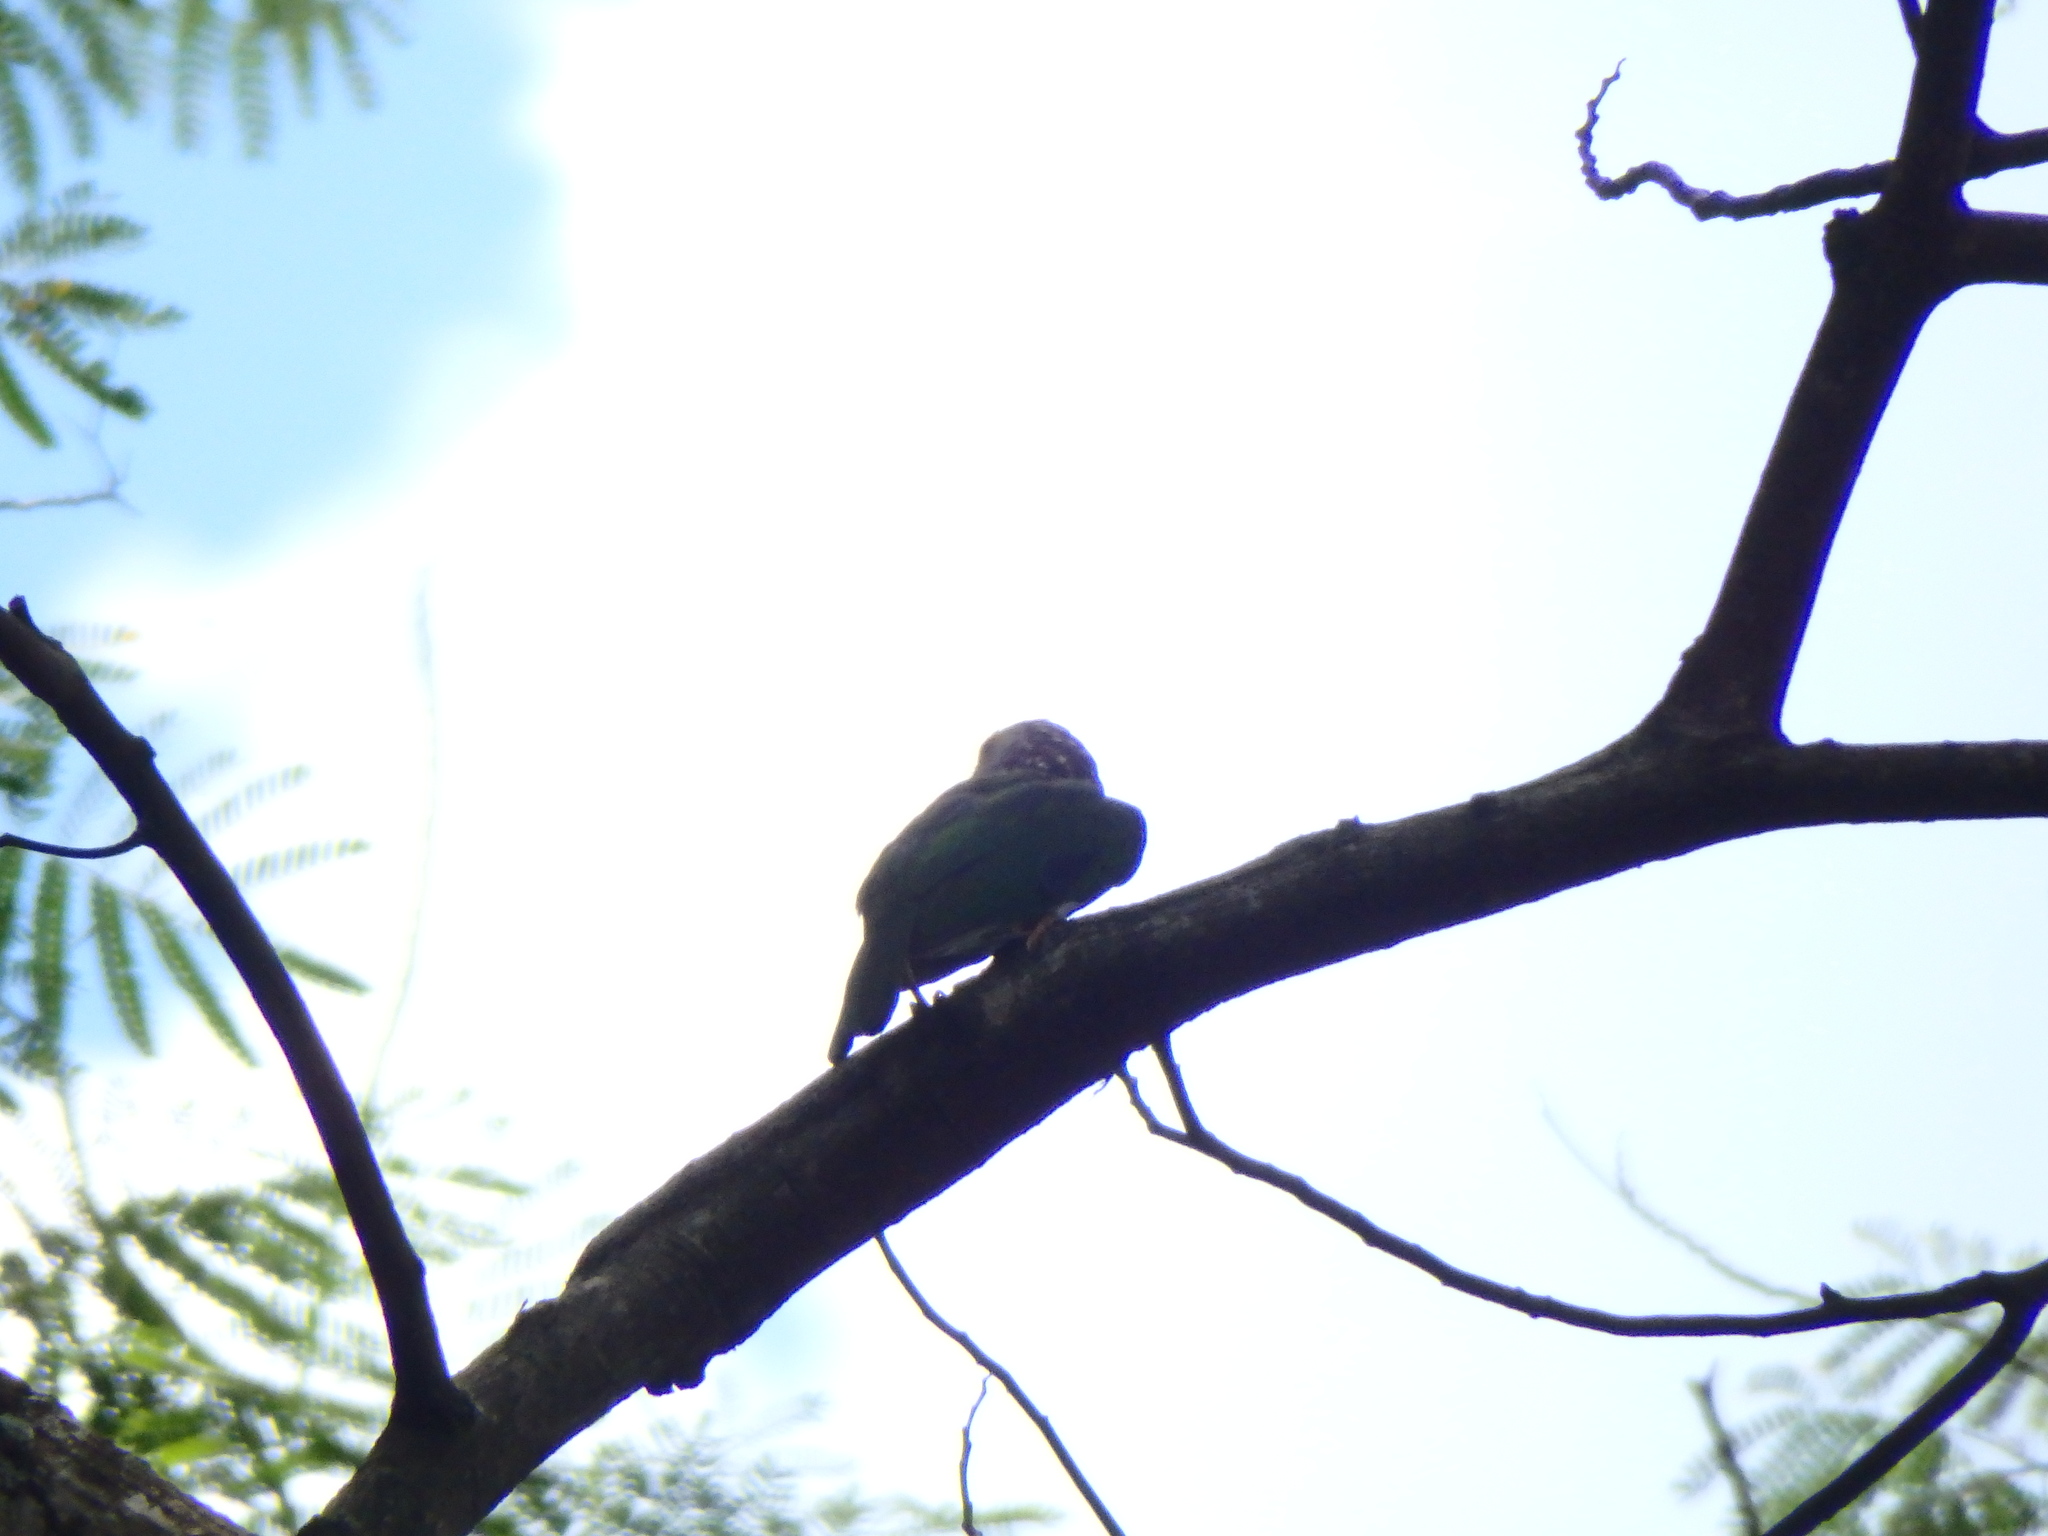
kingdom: Animalia
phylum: Chordata
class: Aves
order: Piciformes
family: Megalaimidae
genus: Psilopogon
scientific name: Psilopogon lineatus
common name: Lineated barbet
